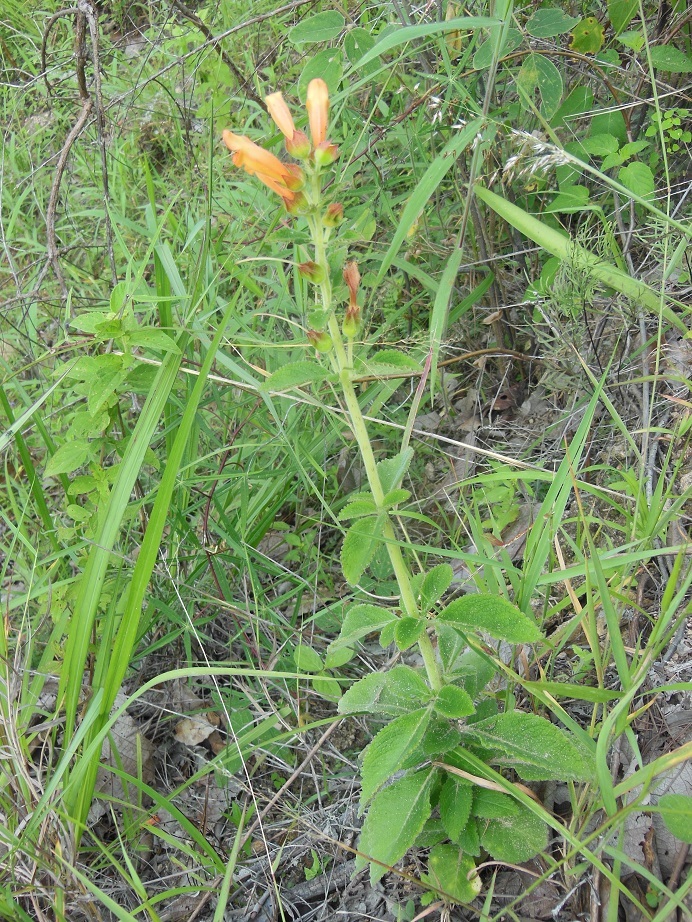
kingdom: Plantae
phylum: Tracheophyta
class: Magnoliopsida
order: Lamiales
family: Gesneriaceae
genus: Sinningia
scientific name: Sinningia incarnata
